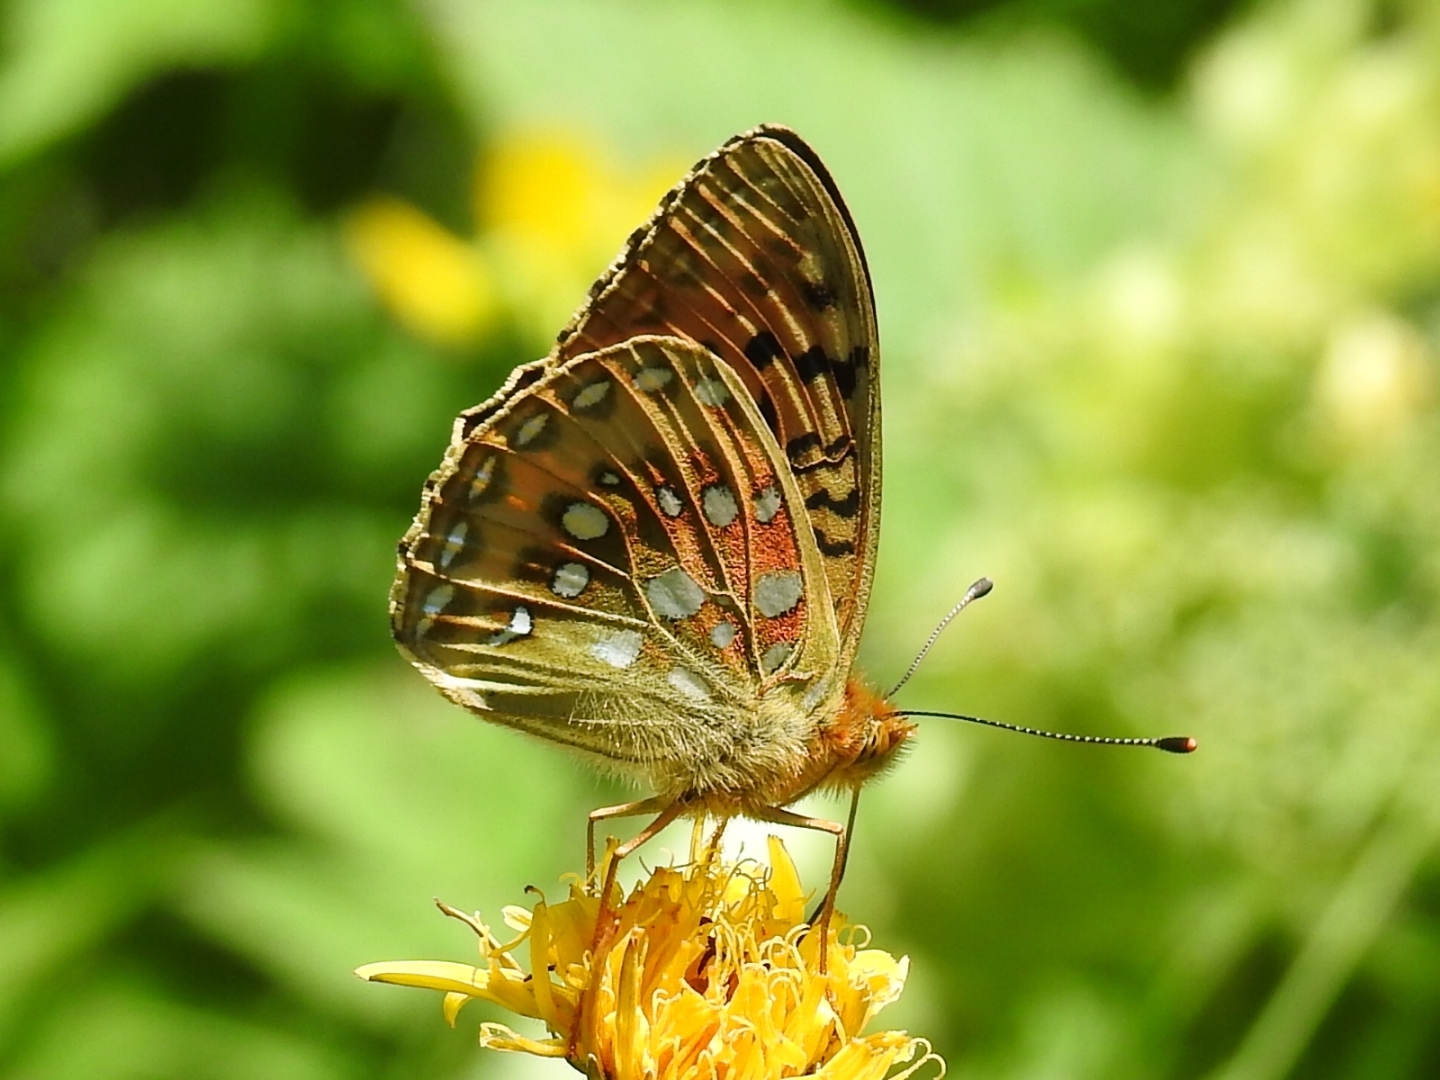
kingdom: Animalia
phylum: Arthropoda
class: Insecta
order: Lepidoptera
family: Nymphalidae
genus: Speyeria
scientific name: Speyeria aglaja
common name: Dark green fritillary
